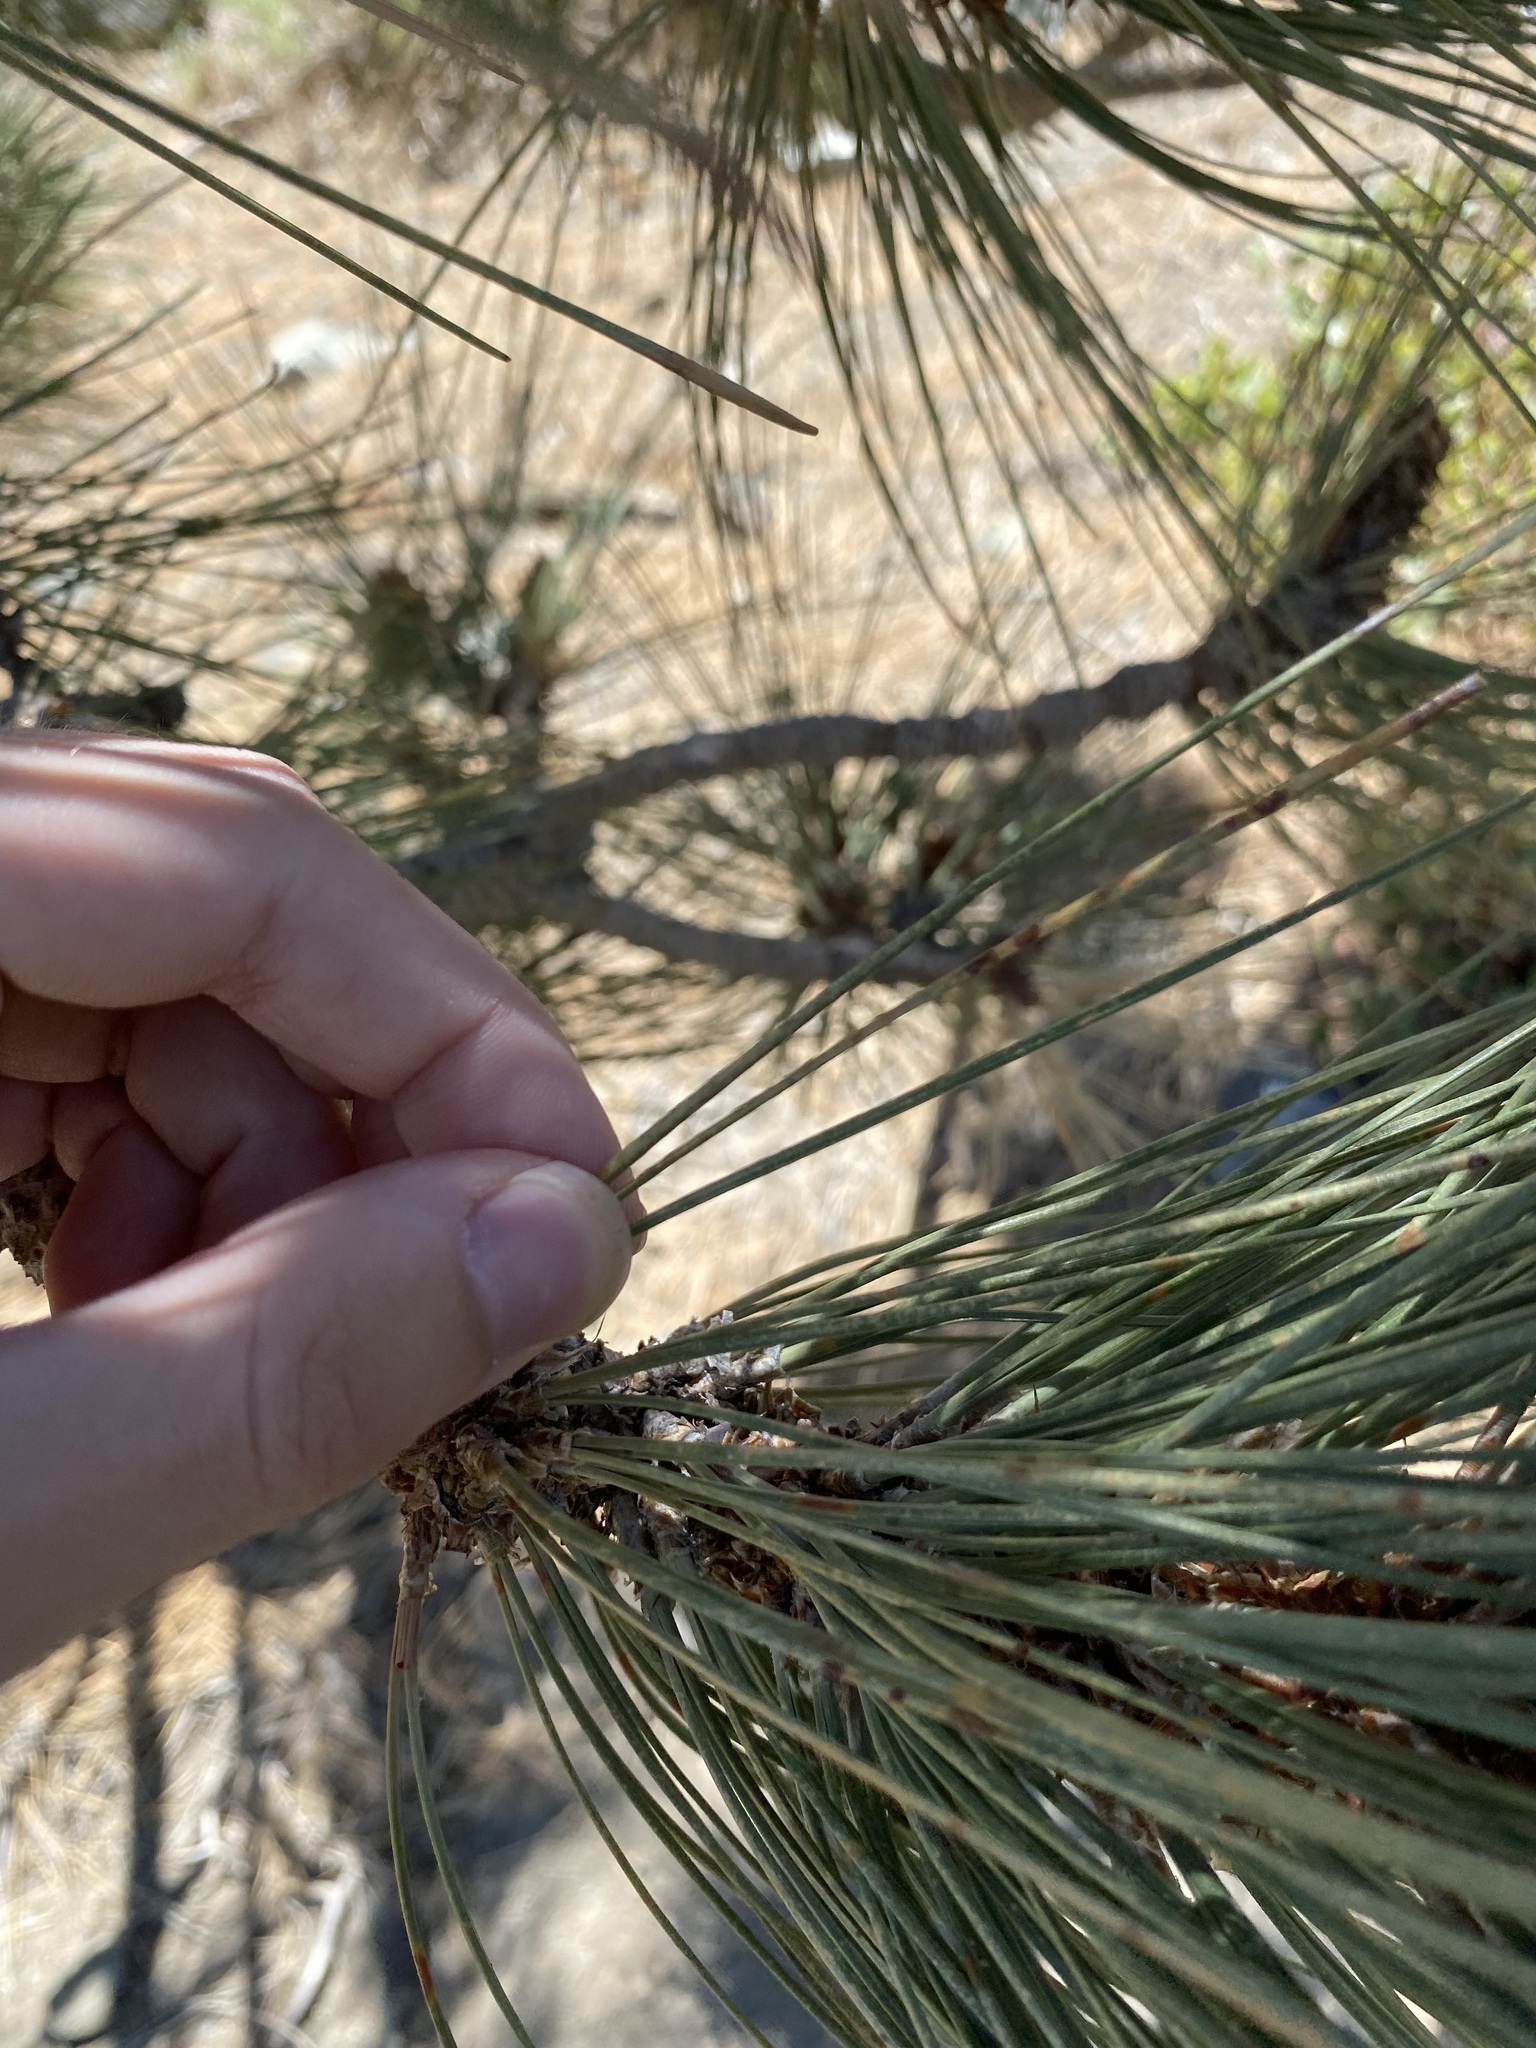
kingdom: Plantae
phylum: Tracheophyta
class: Pinopsida
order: Pinales
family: Pinaceae
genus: Pinus
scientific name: Pinus jeffreyi
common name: Jeffrey pine
